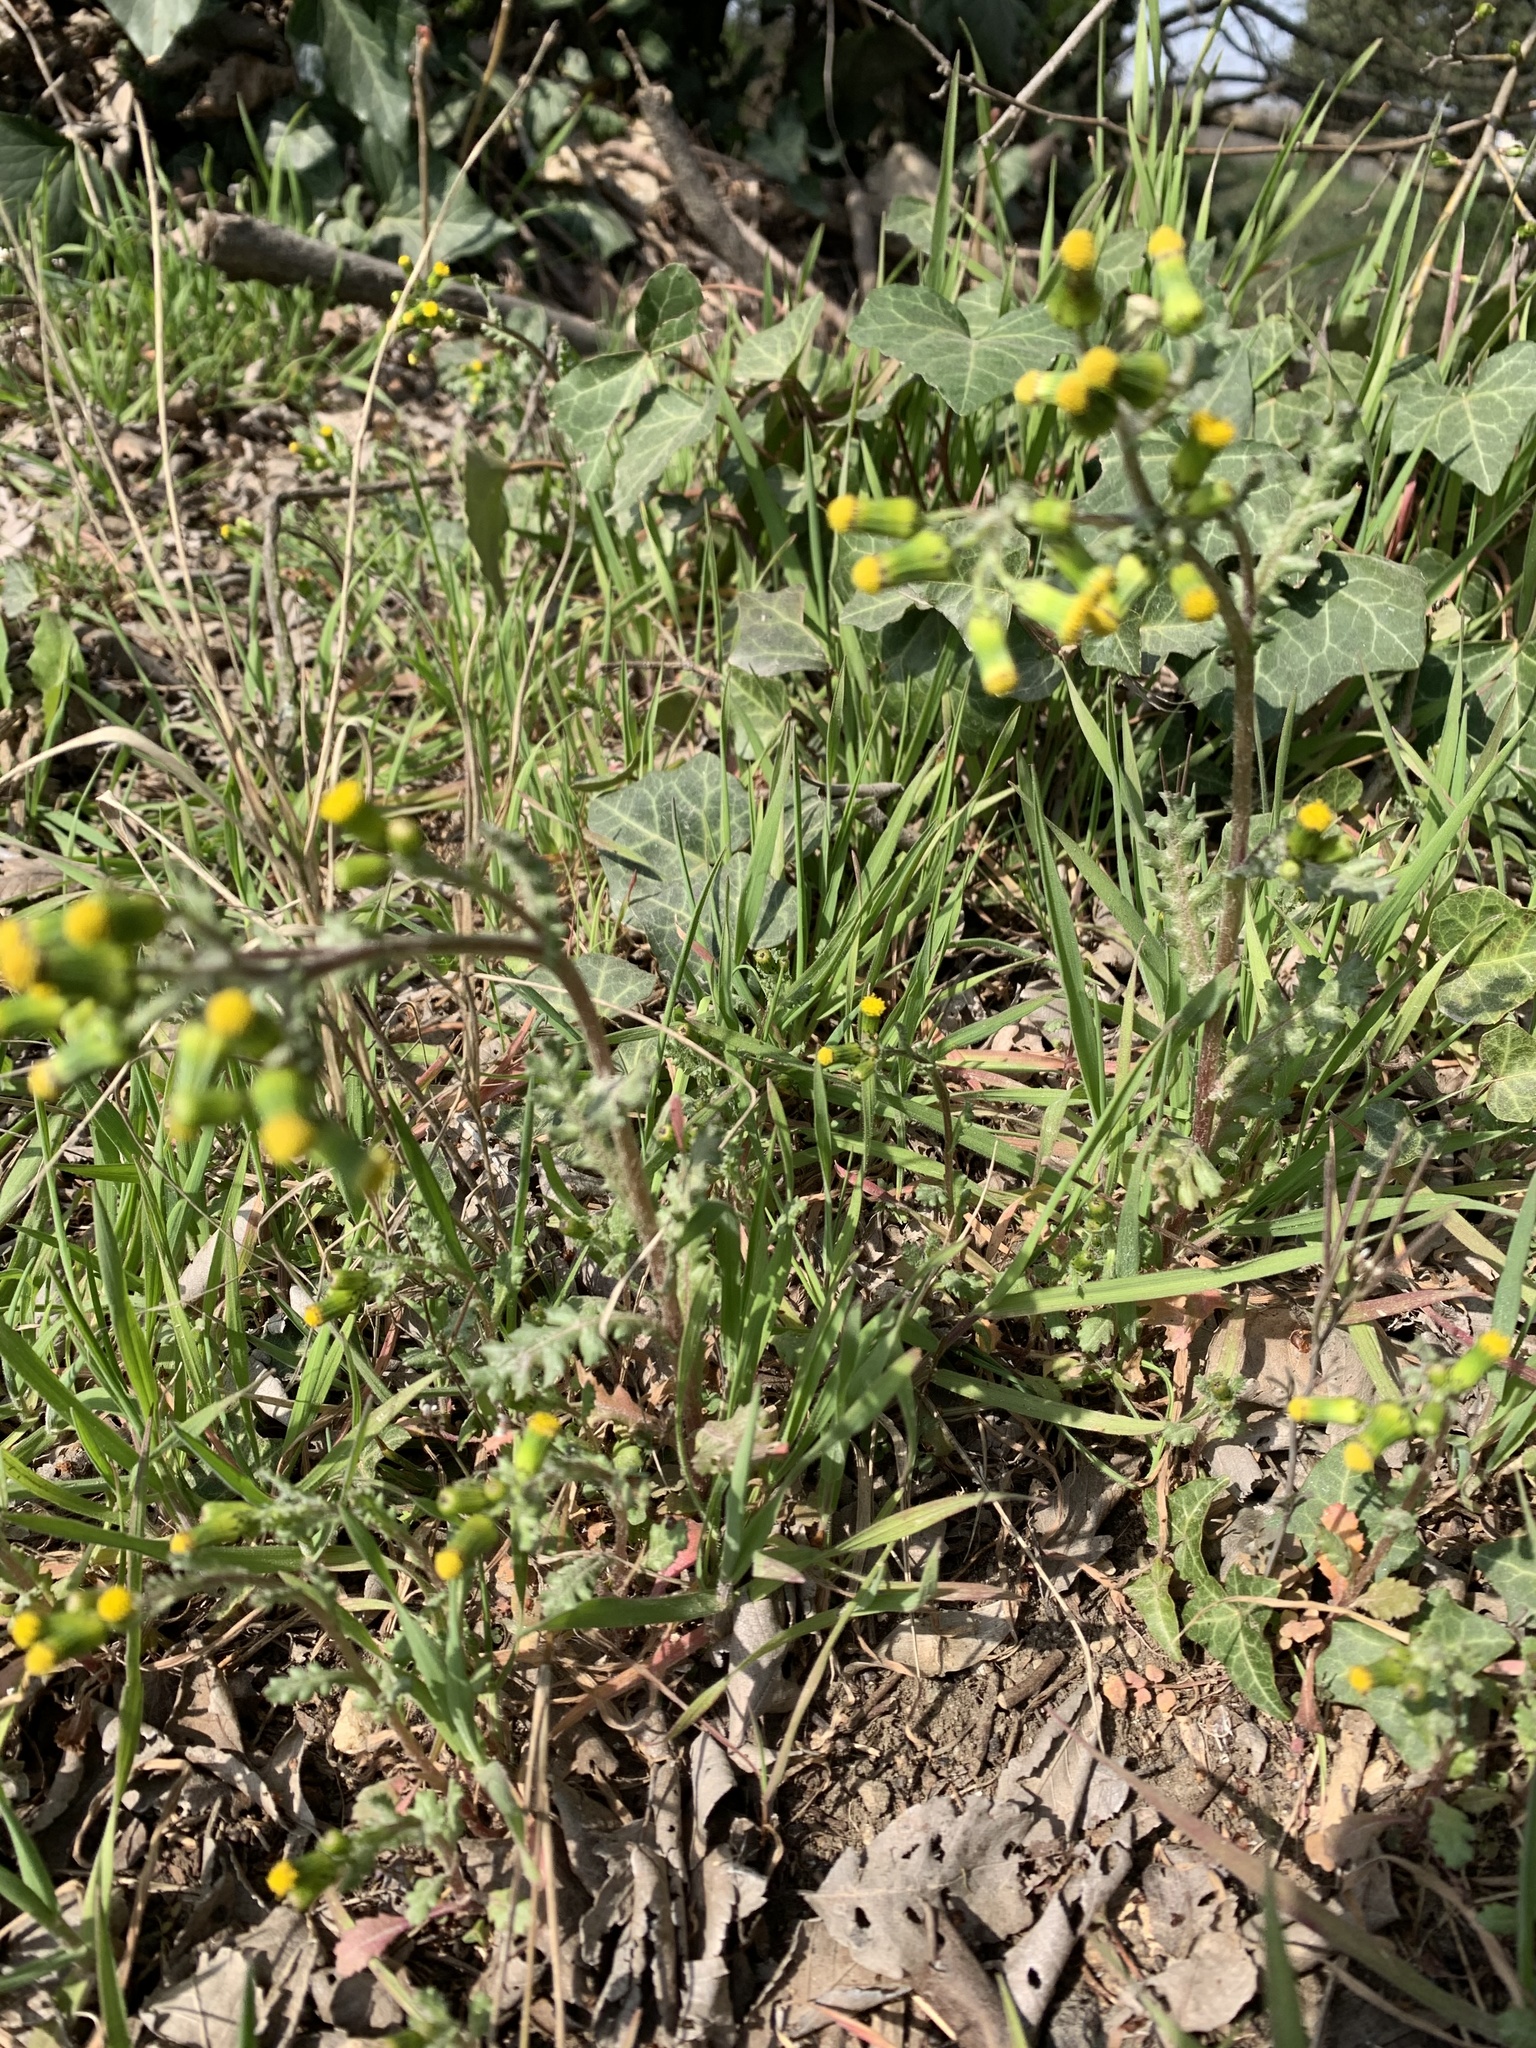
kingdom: Plantae
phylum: Tracheophyta
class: Magnoliopsida
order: Asterales
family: Asteraceae
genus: Senecio
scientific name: Senecio vulgaris
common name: Old-man-in-the-spring
